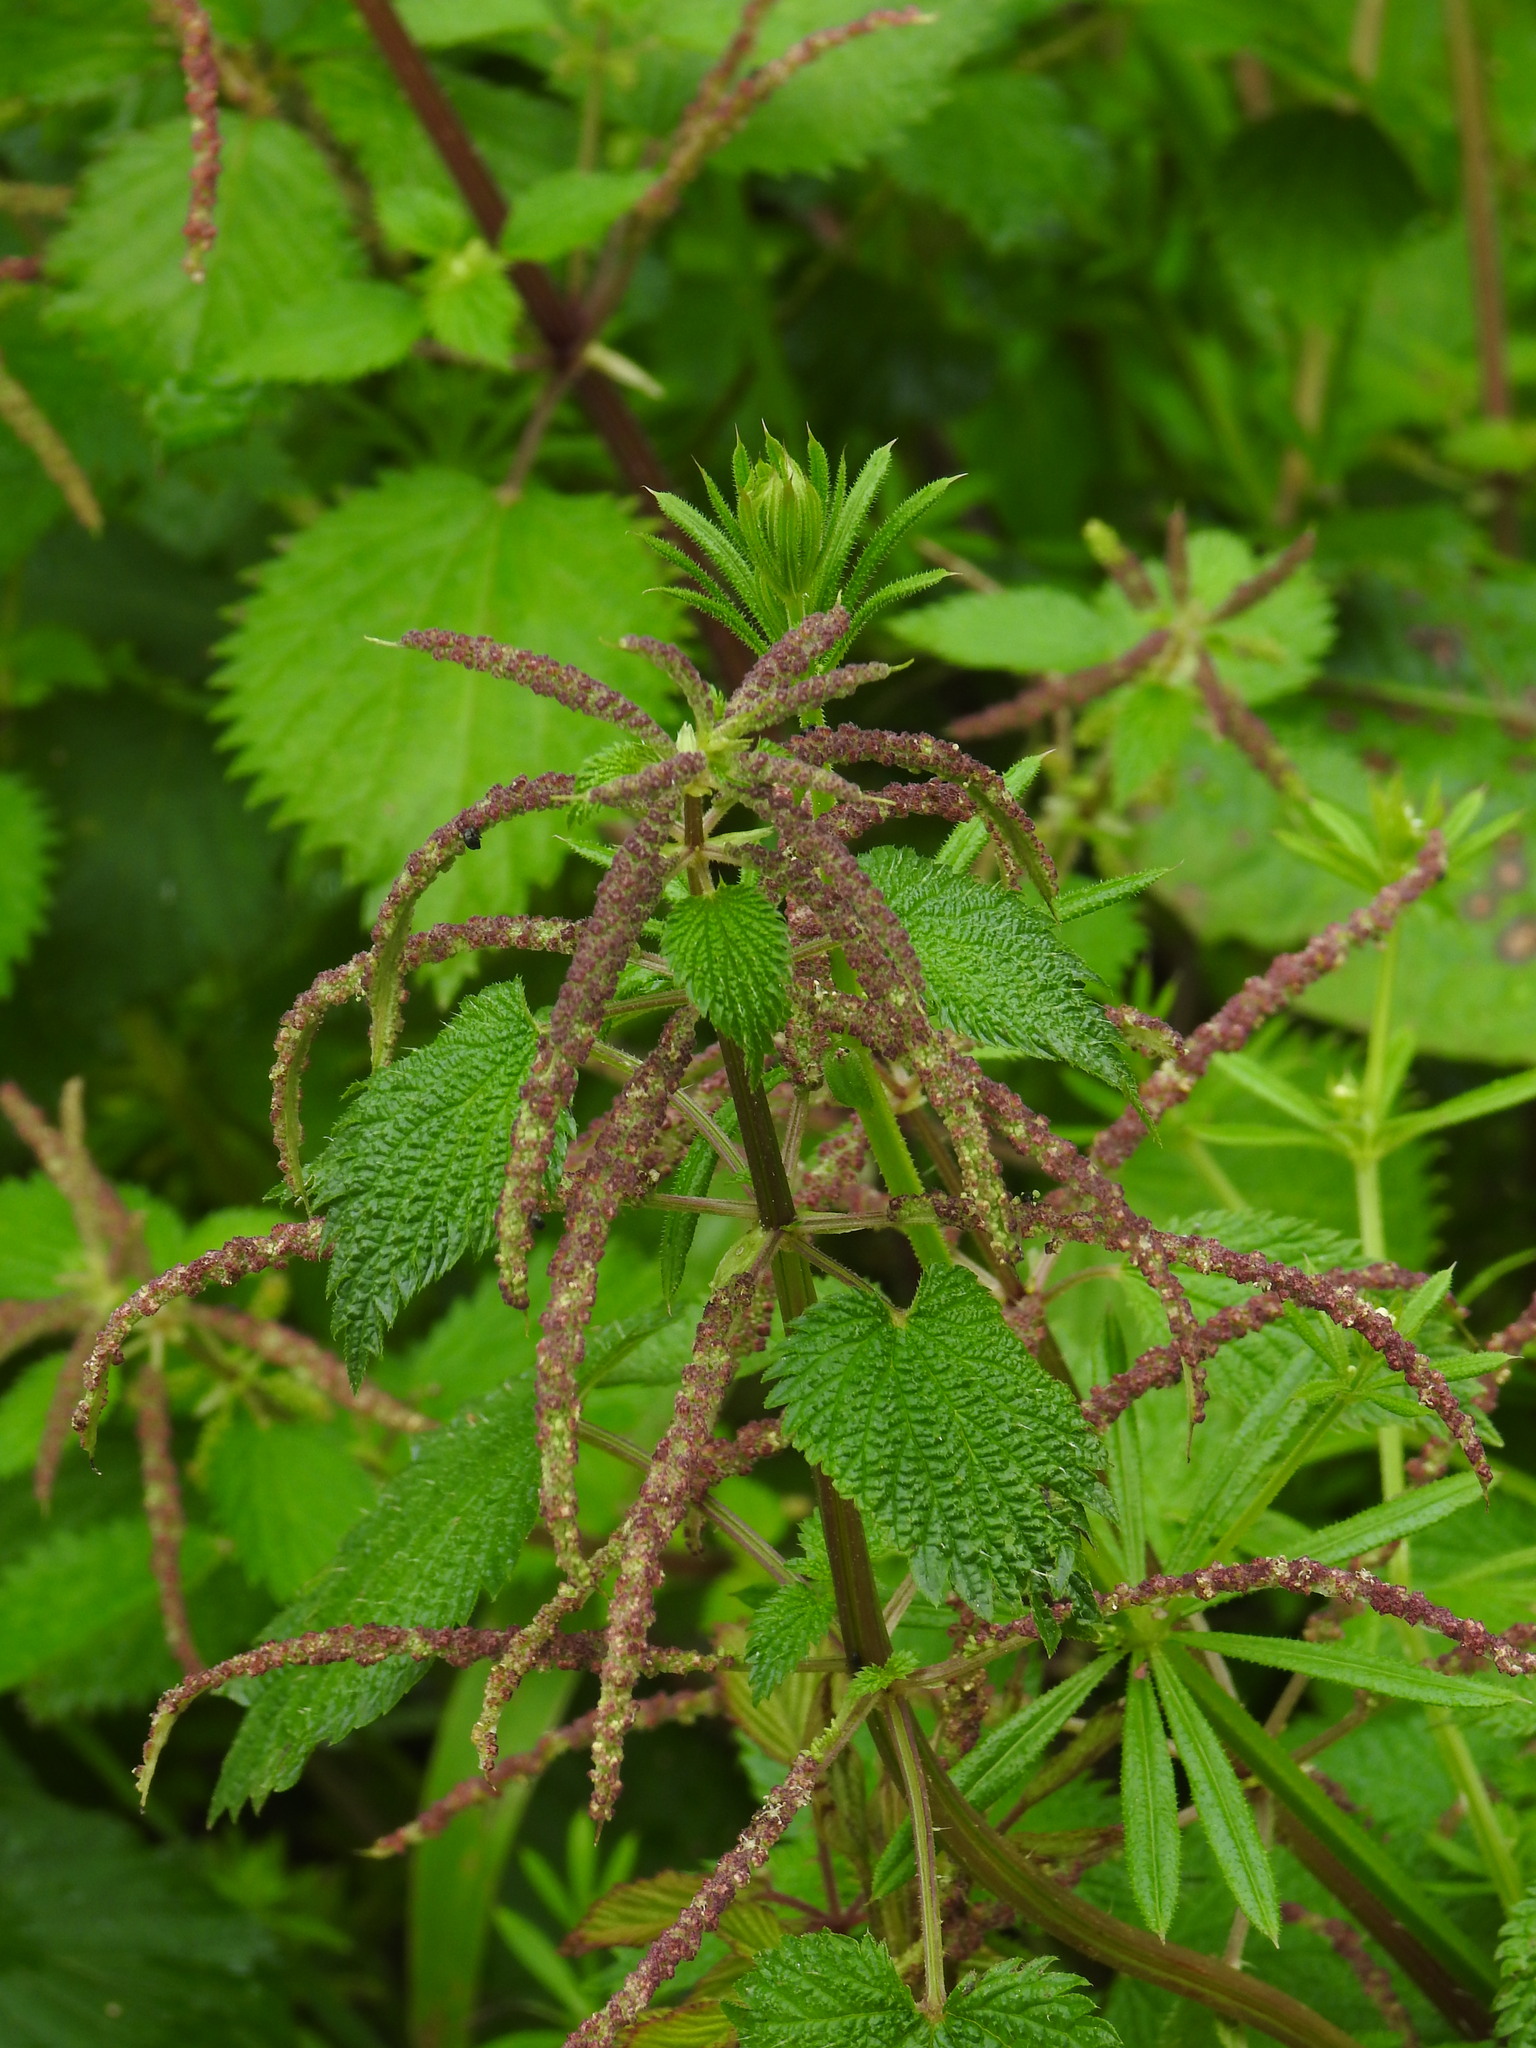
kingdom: Plantae
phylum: Tracheophyta
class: Magnoliopsida
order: Rosales
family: Urticaceae
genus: Urtica
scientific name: Urtica membranacea
